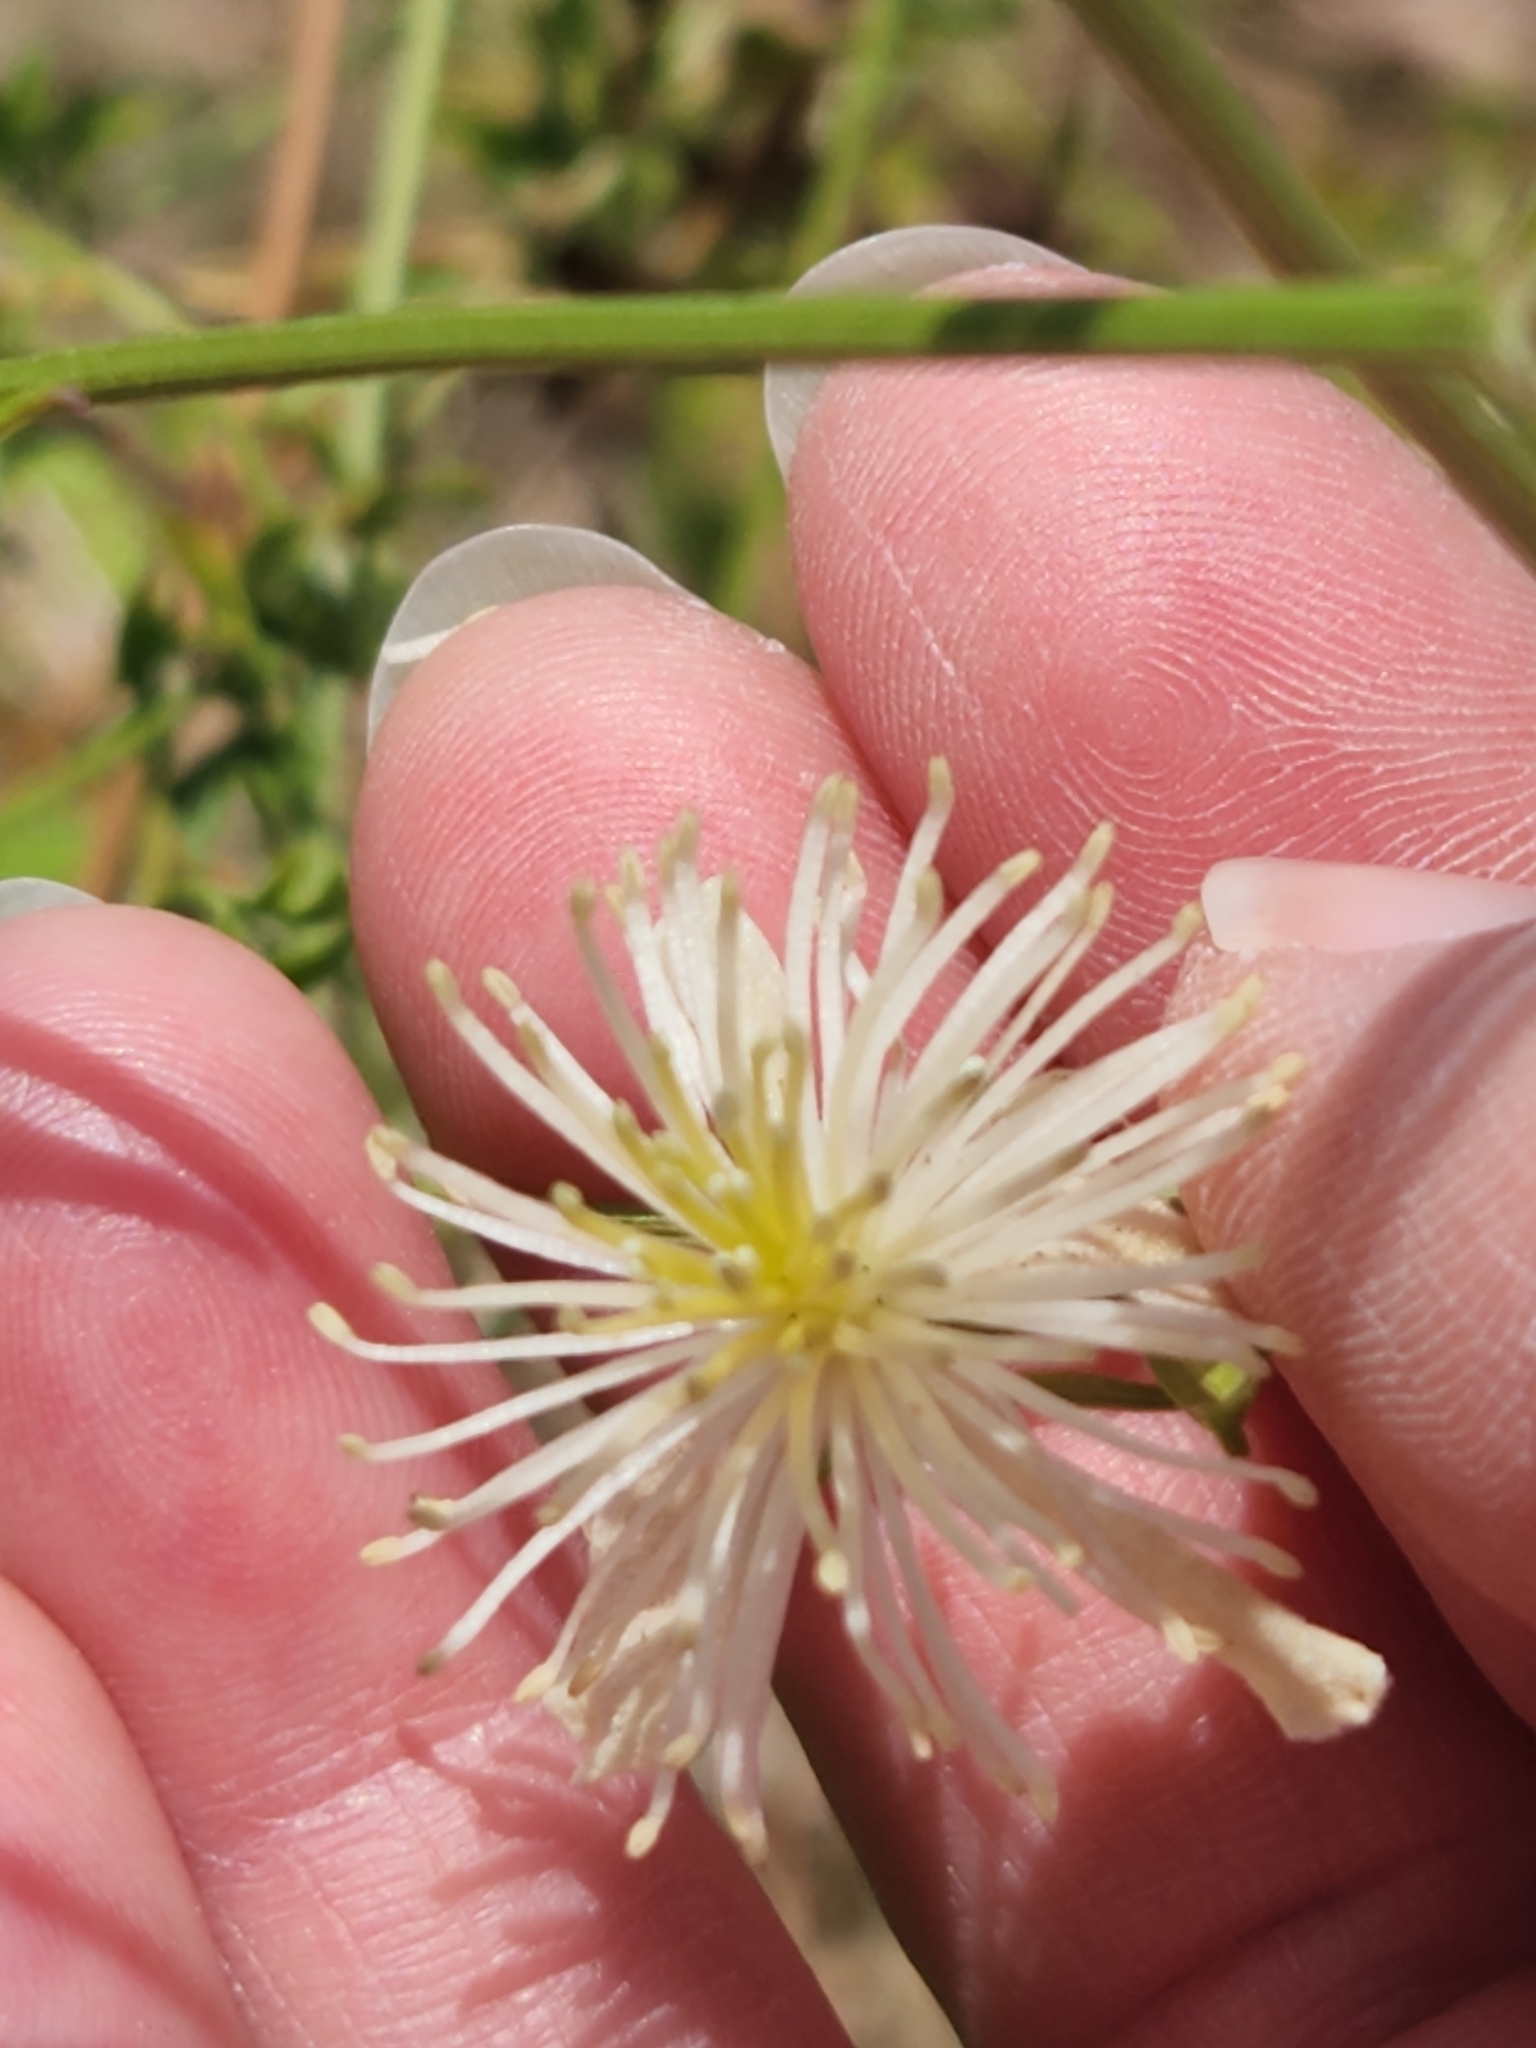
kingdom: Plantae
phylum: Tracheophyta
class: Magnoliopsida
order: Ranunculales
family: Ranunculaceae
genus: Clematis
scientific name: Clematis drummondii
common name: Texas virgin's bower
